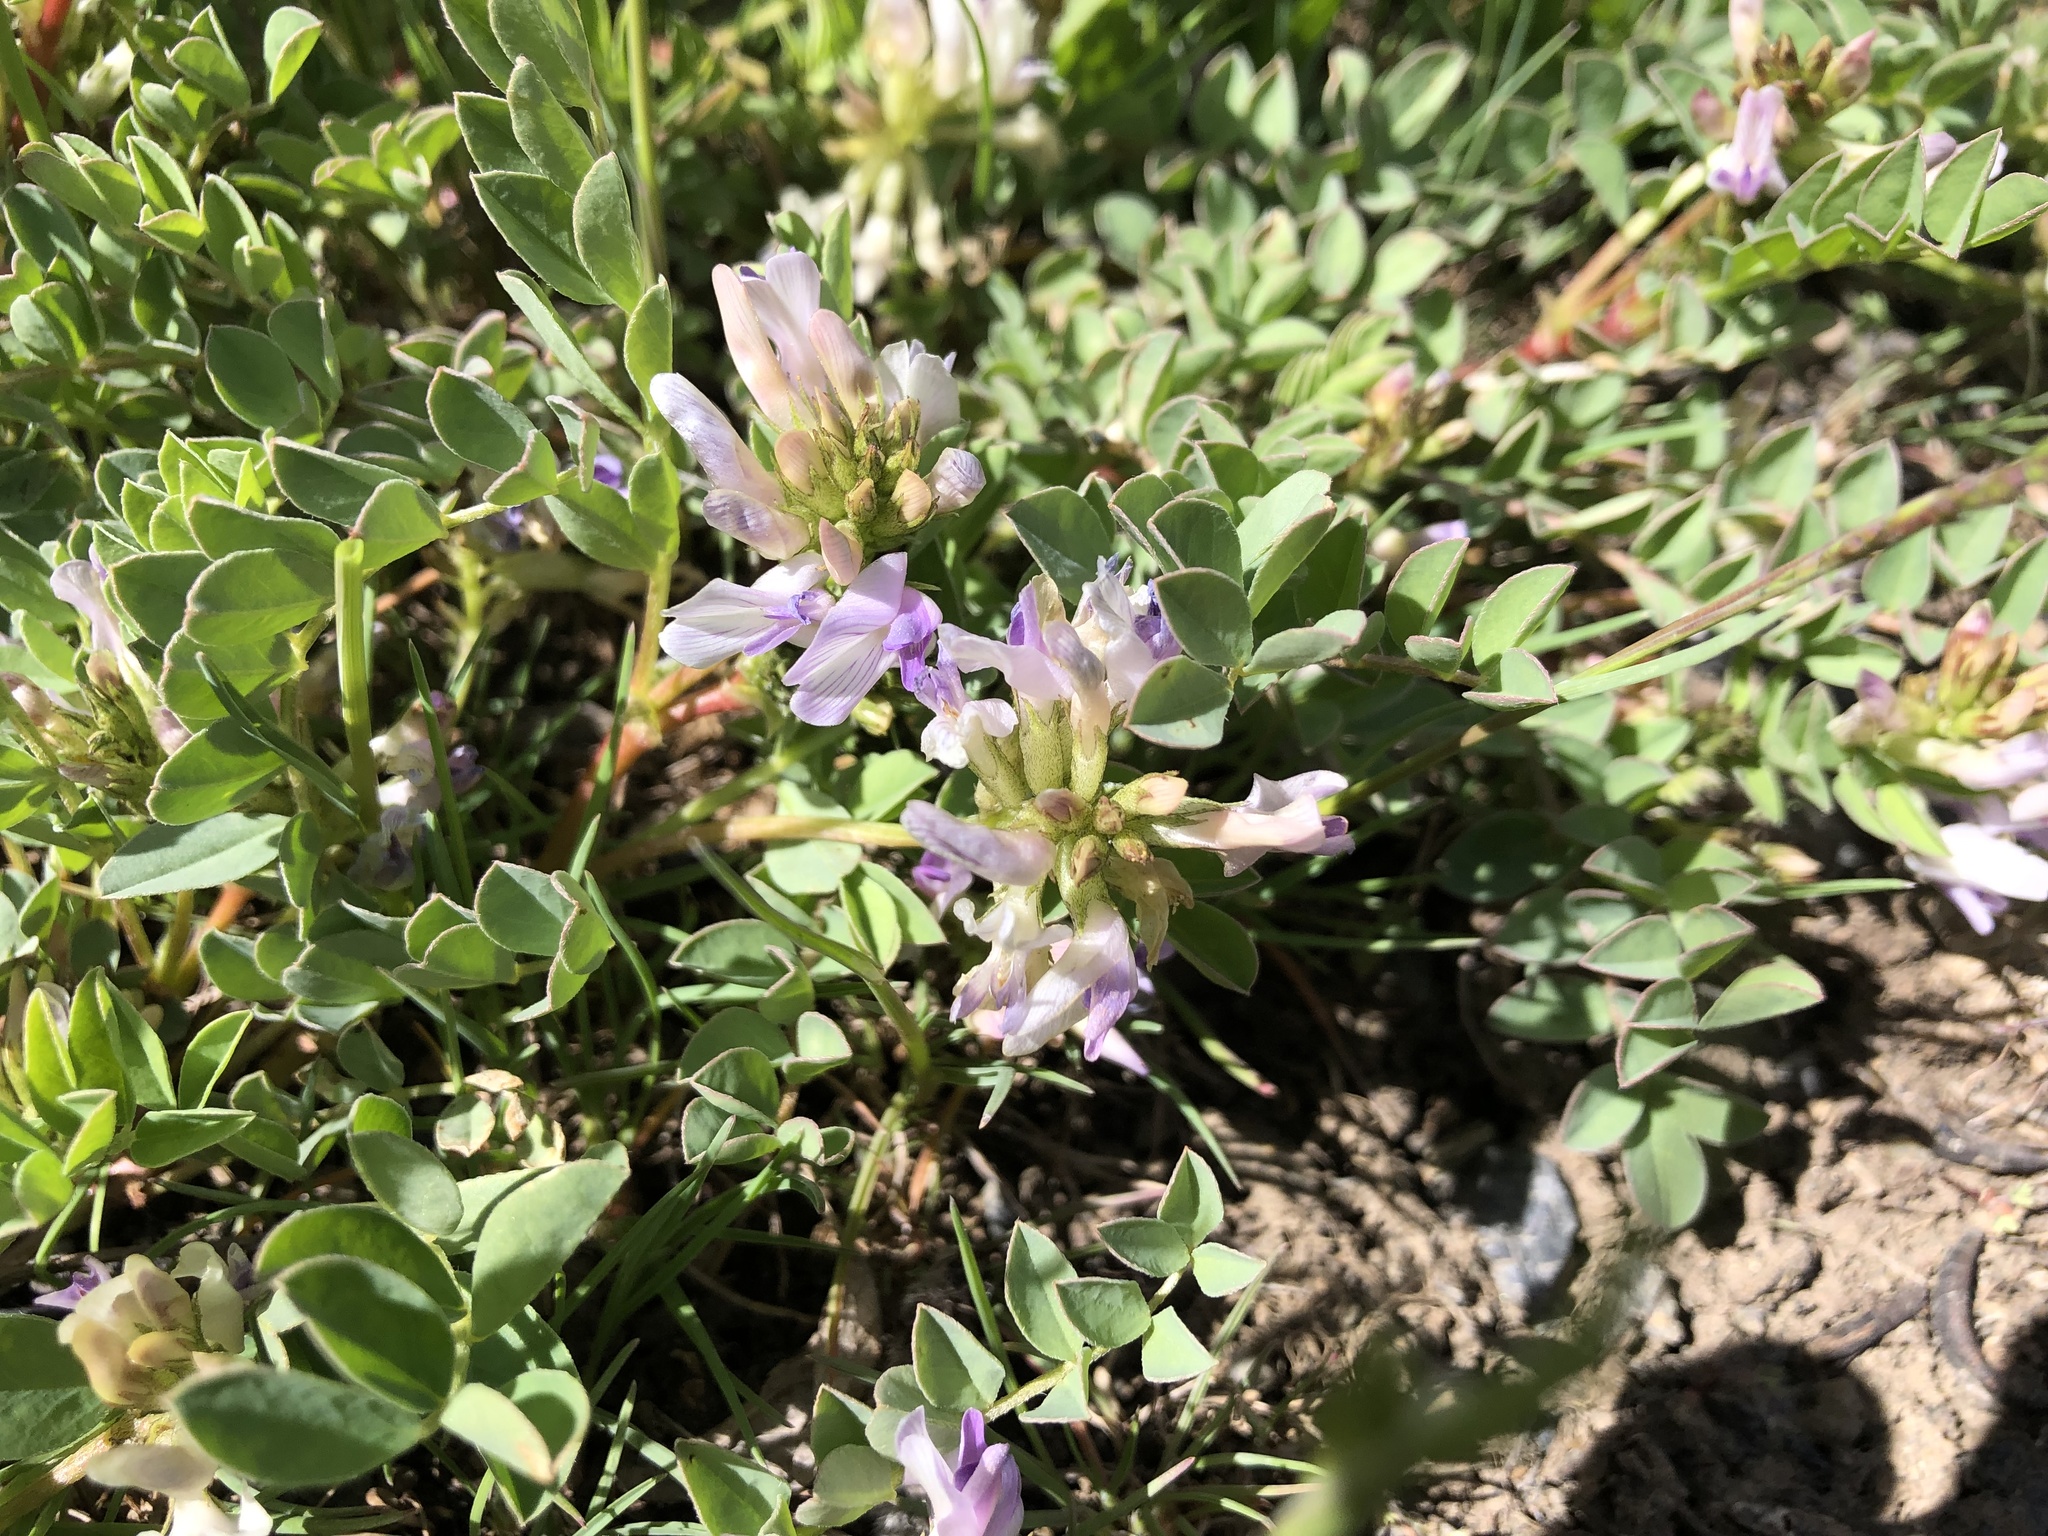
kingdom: Plantae
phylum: Tracheophyta
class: Magnoliopsida
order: Fabales
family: Fabaceae
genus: Astragalus
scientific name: Astragalus lentiginosus
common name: Freckled milkvetch
